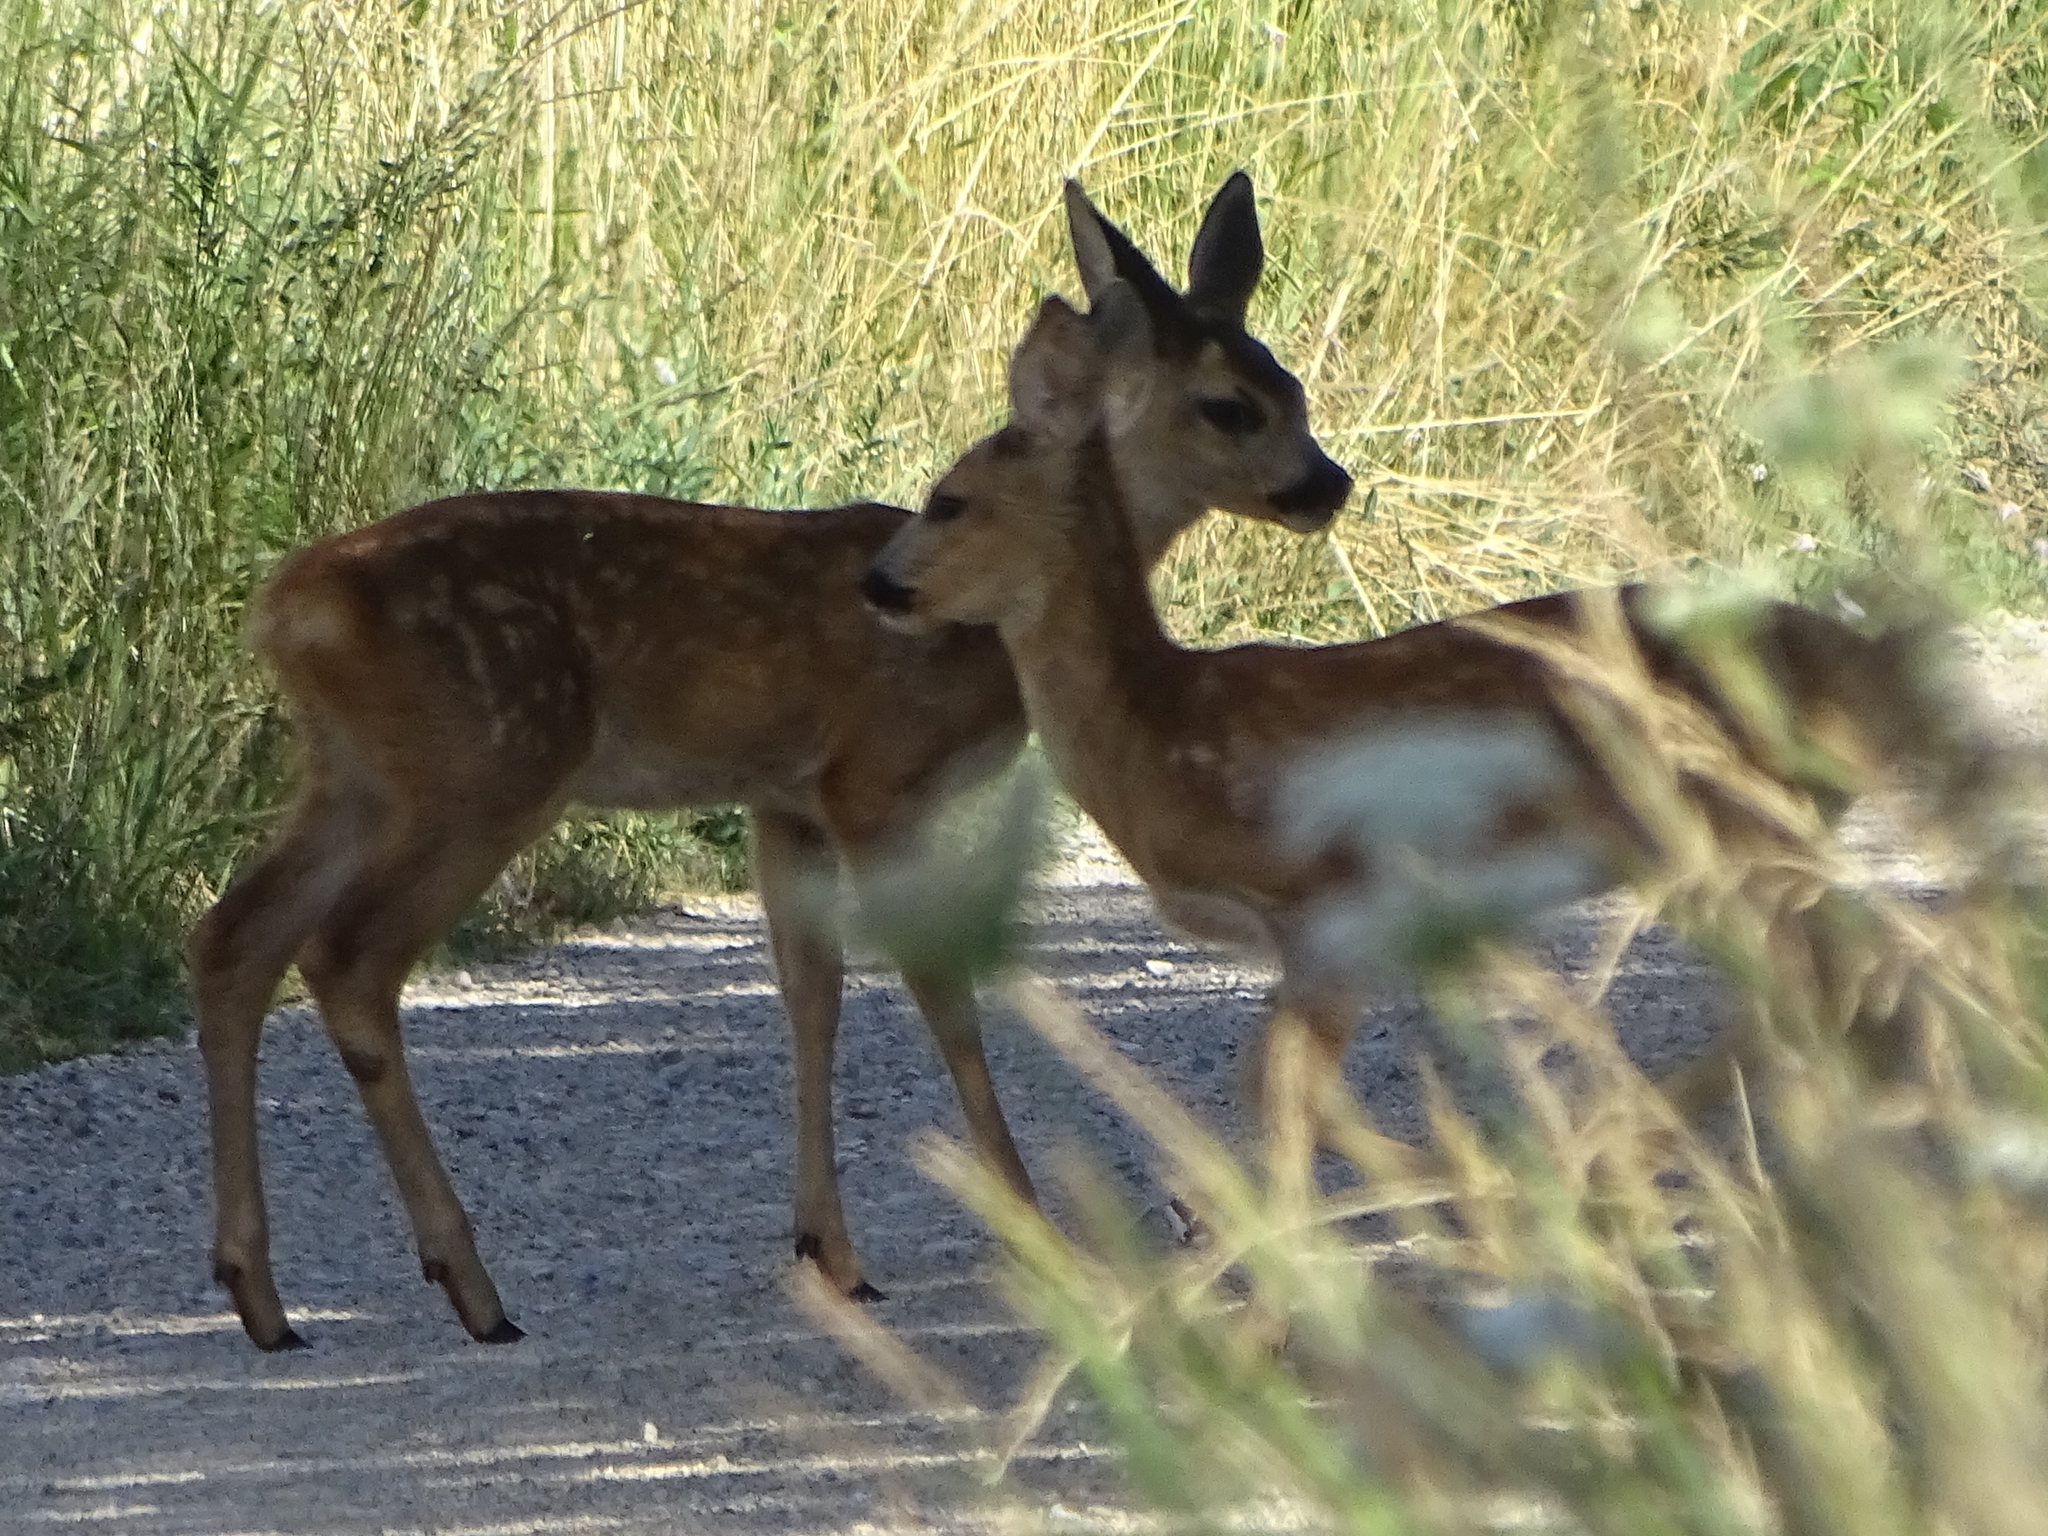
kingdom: Animalia
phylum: Chordata
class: Mammalia
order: Artiodactyla
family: Cervidae
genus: Capreolus
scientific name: Capreolus capreolus
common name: Western roe deer
